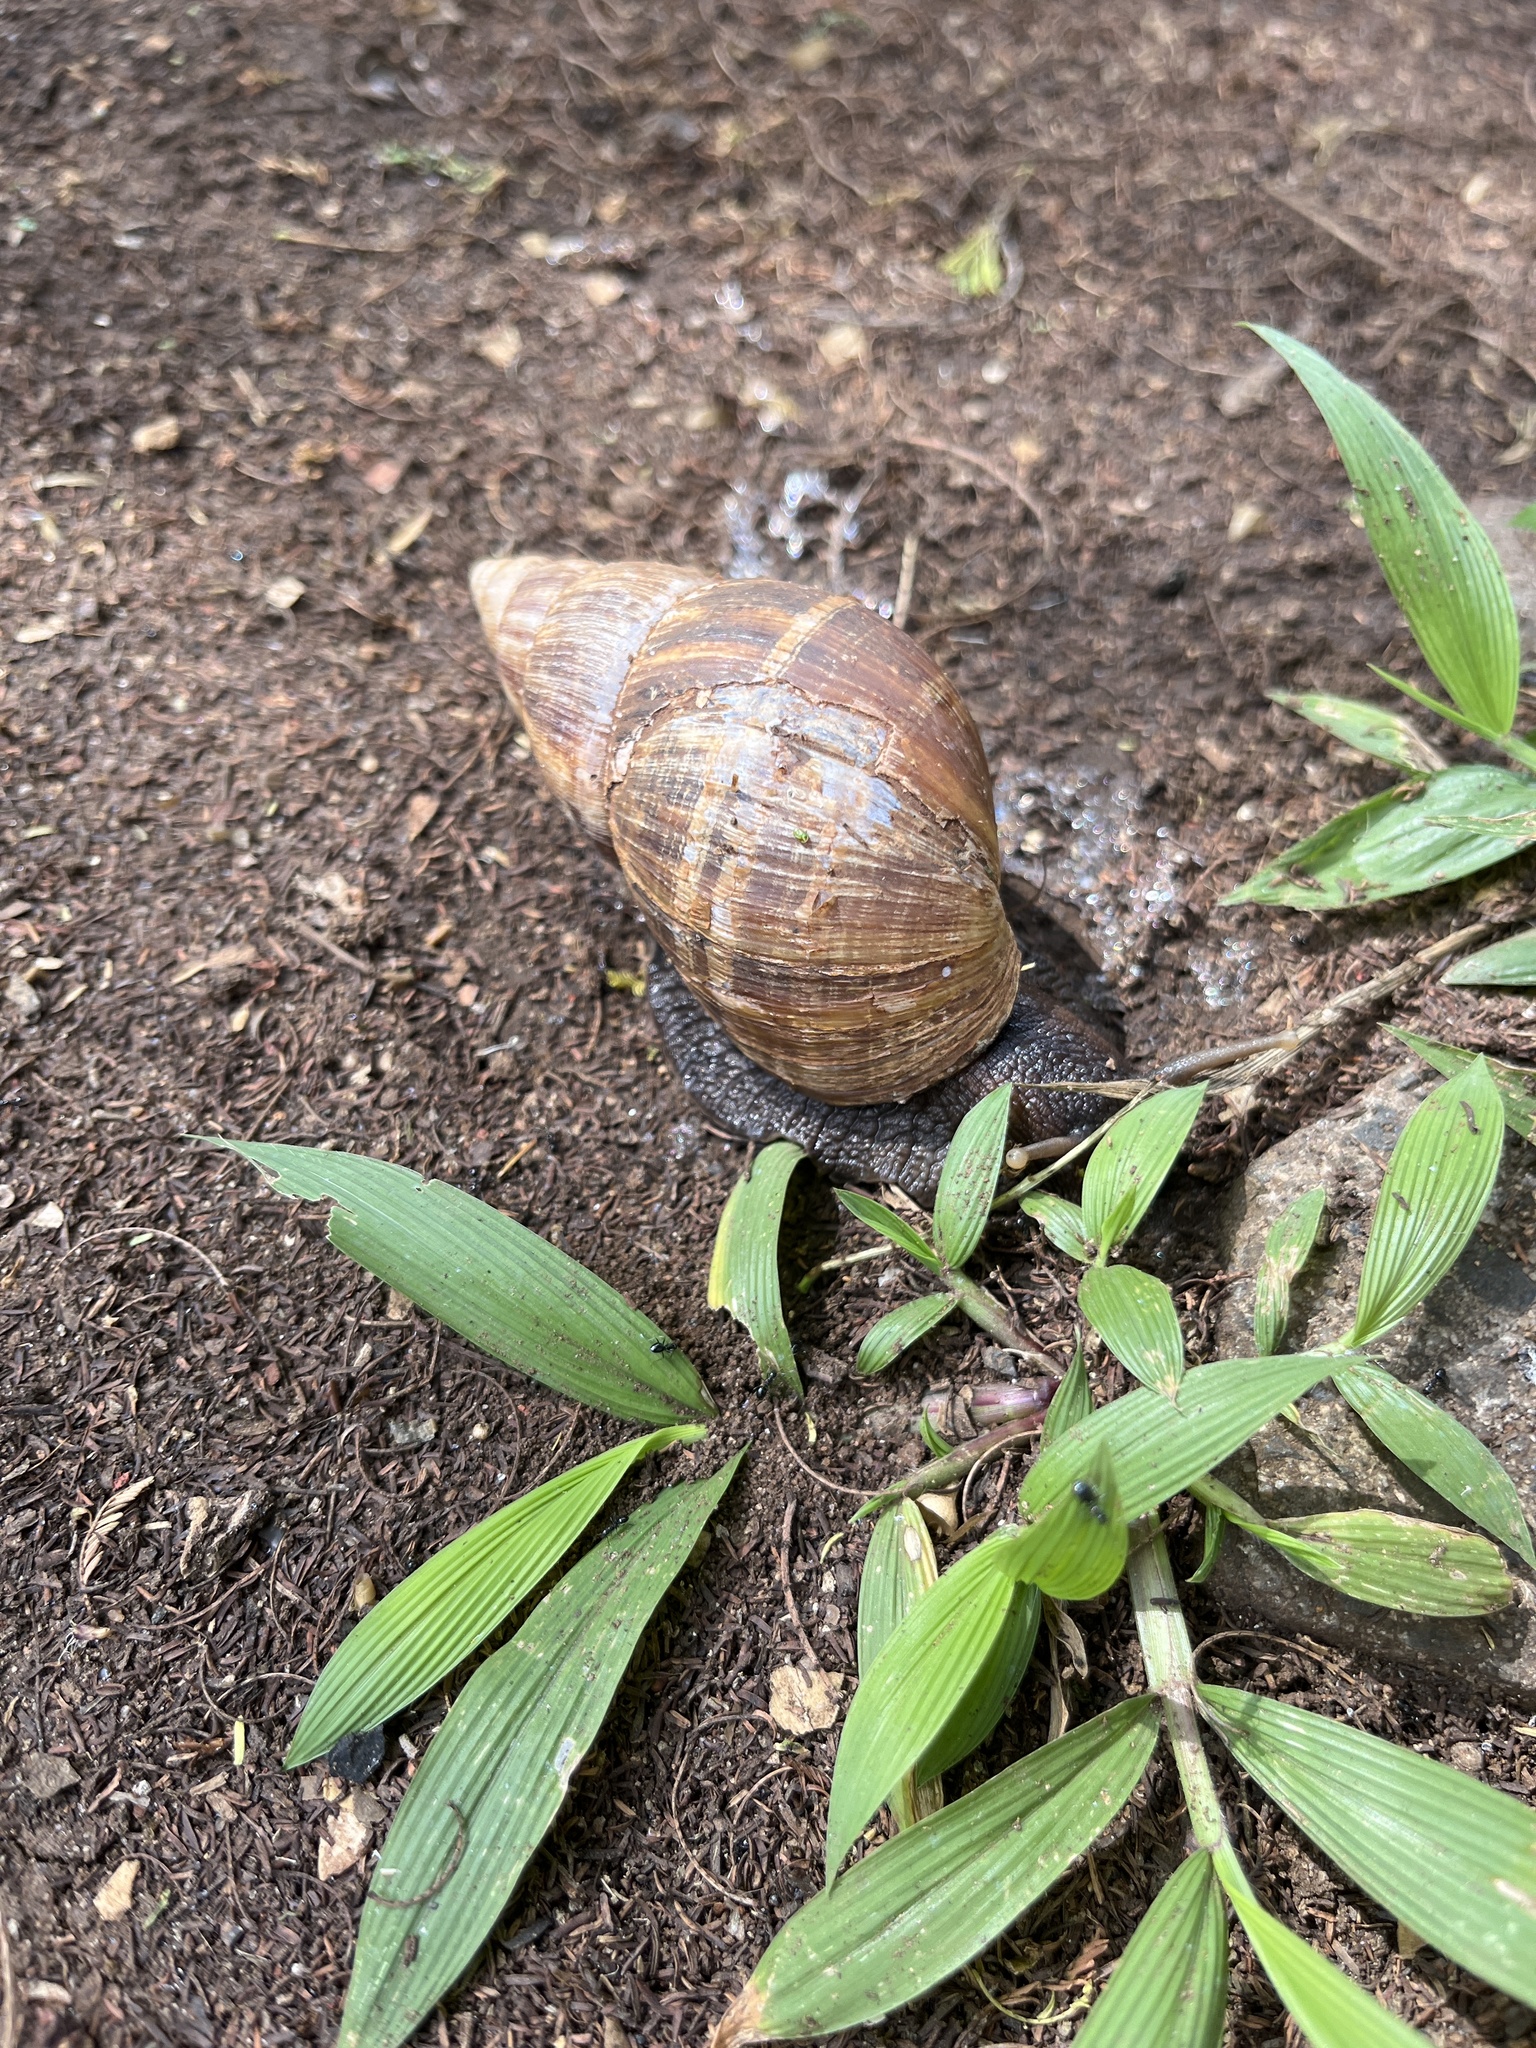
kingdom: Animalia
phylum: Mollusca
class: Gastropoda
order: Stylommatophora
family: Achatinidae
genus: Lissachatina
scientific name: Lissachatina fulica
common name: Giant african snail
